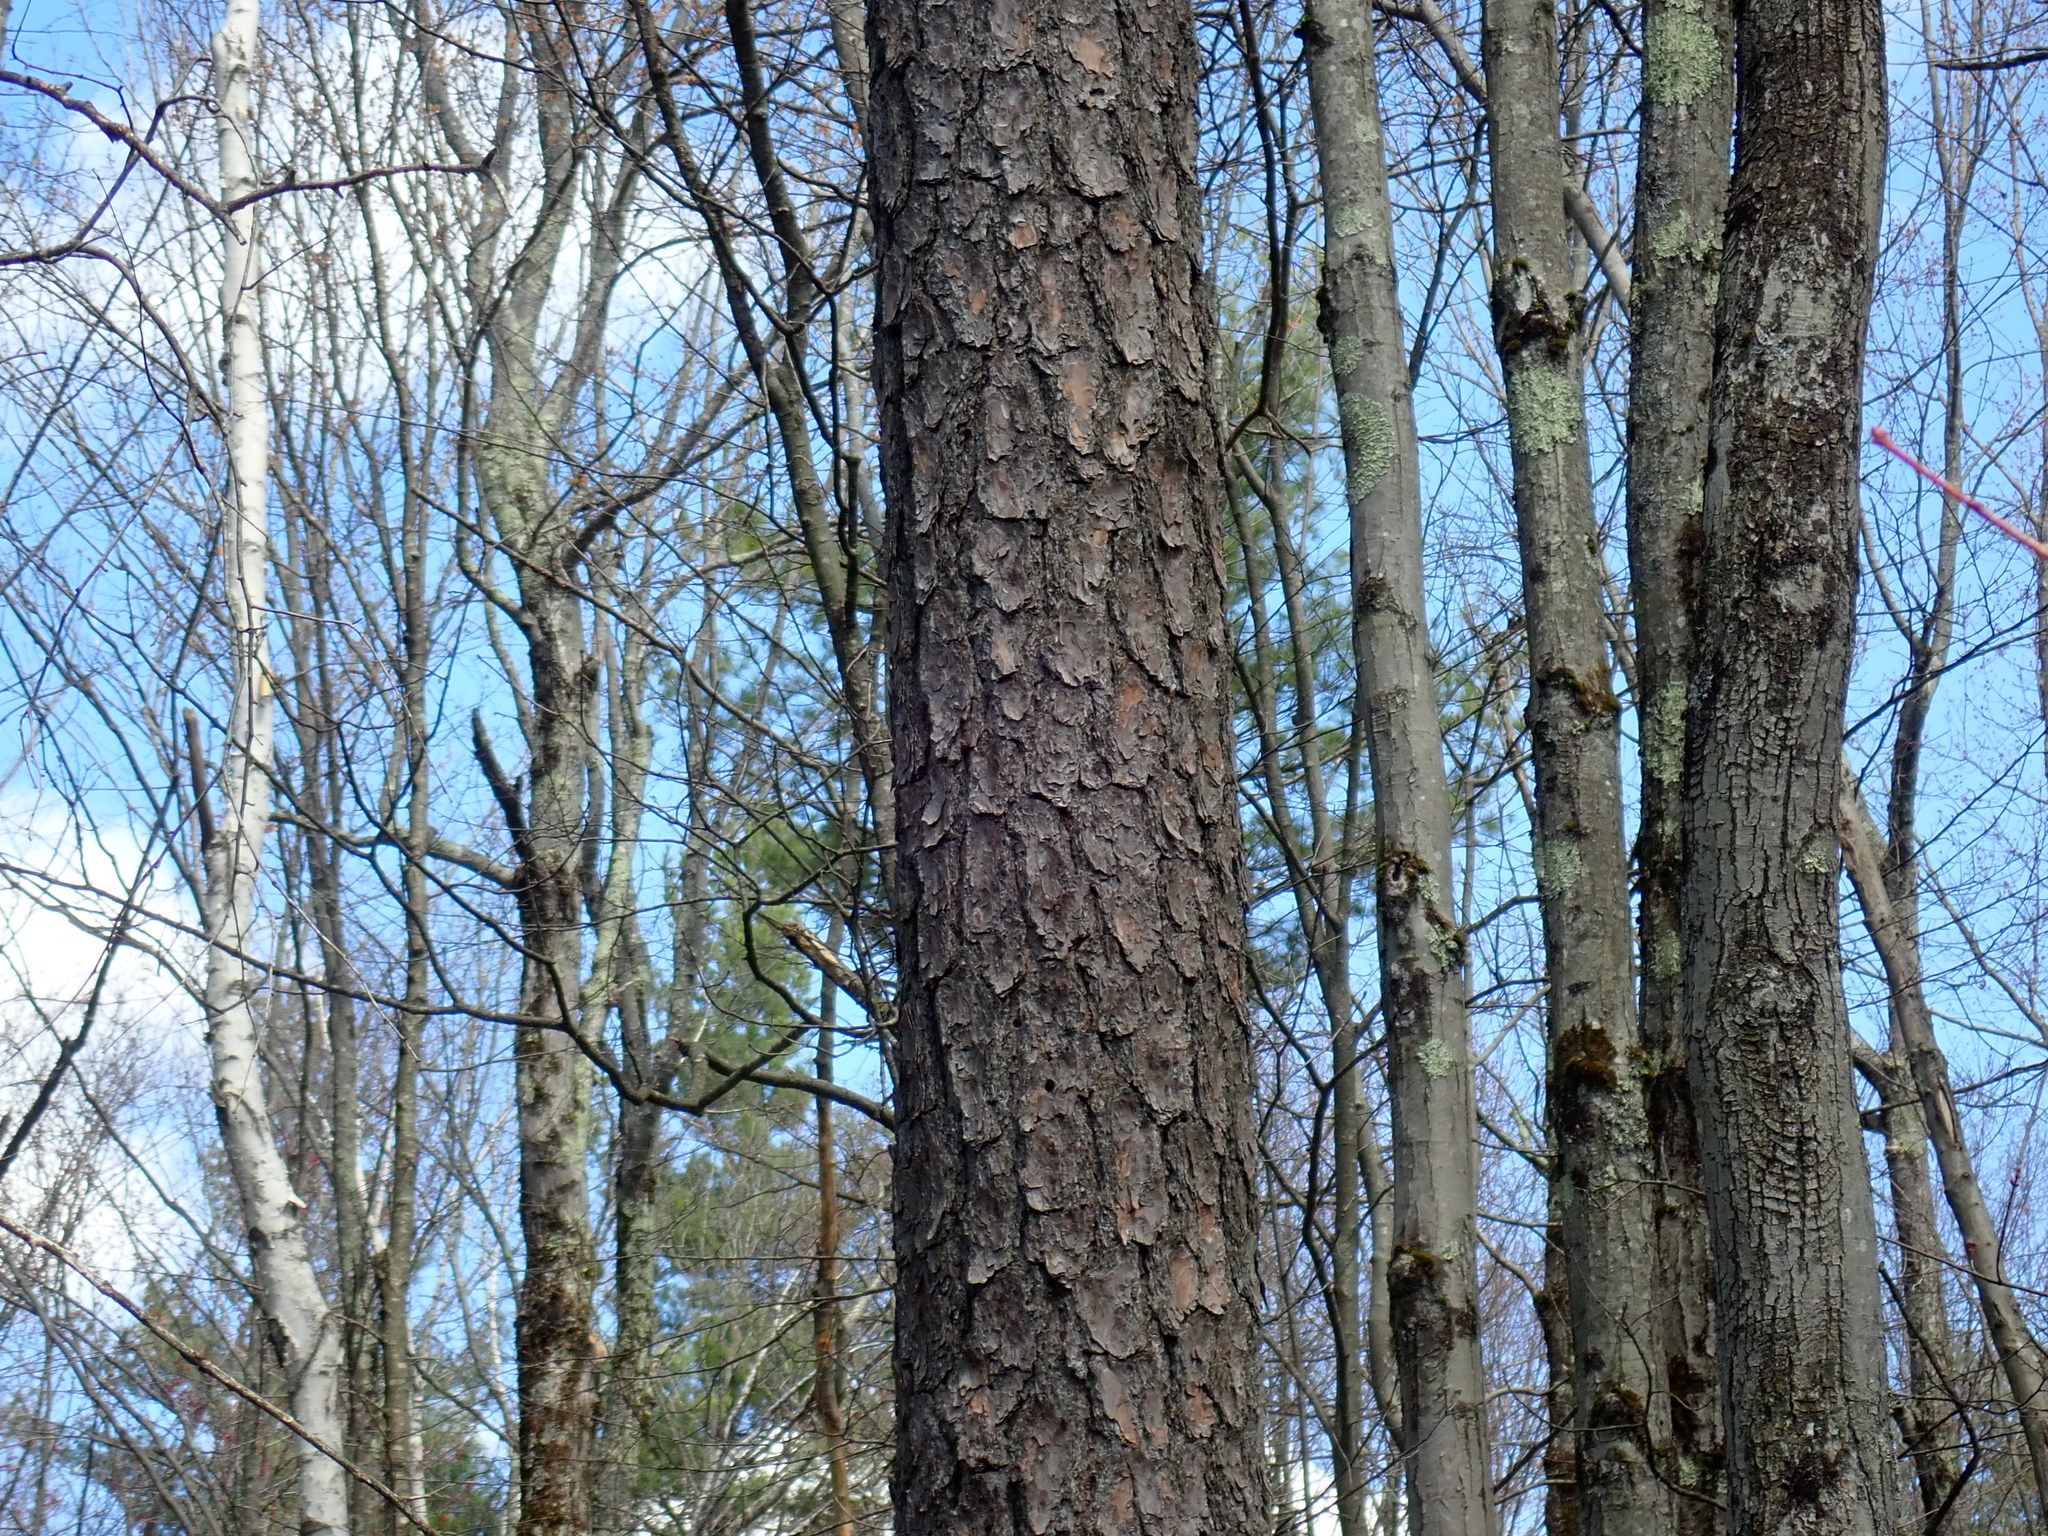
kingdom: Plantae
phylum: Tracheophyta
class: Pinopsida
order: Pinales
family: Pinaceae
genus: Pinus
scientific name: Pinus rigida
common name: Pitch pine
